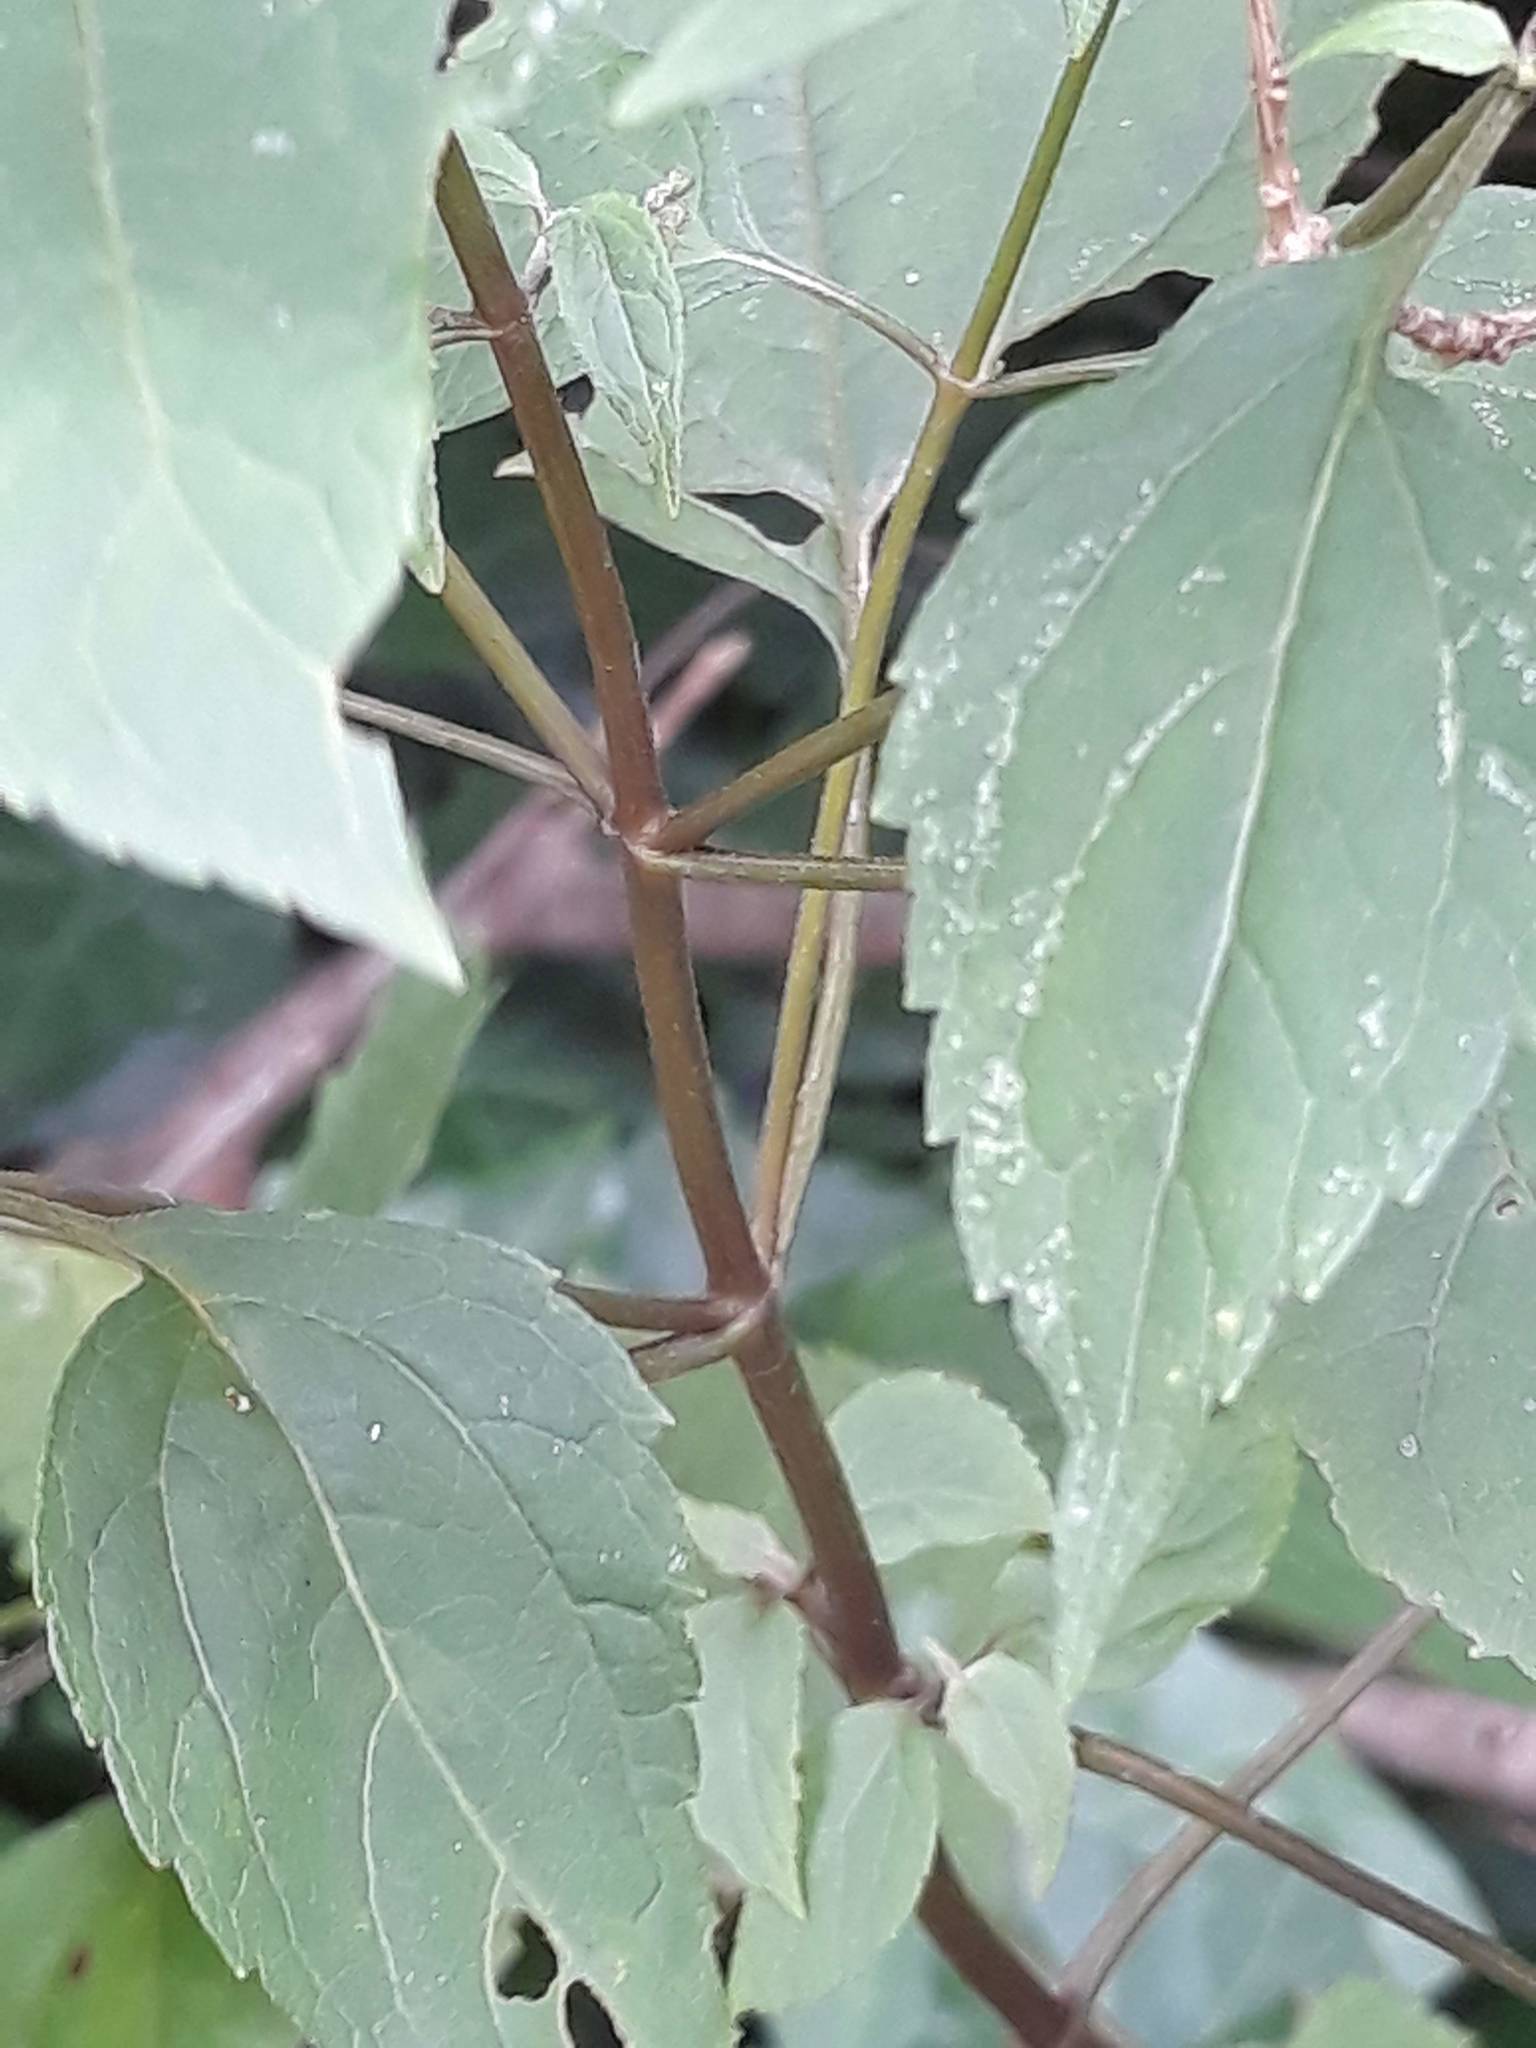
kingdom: Plantae
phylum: Tracheophyta
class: Magnoliopsida
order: Asterales
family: Asteraceae
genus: Ageratina
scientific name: Ageratina altissima
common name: White snakeroot
